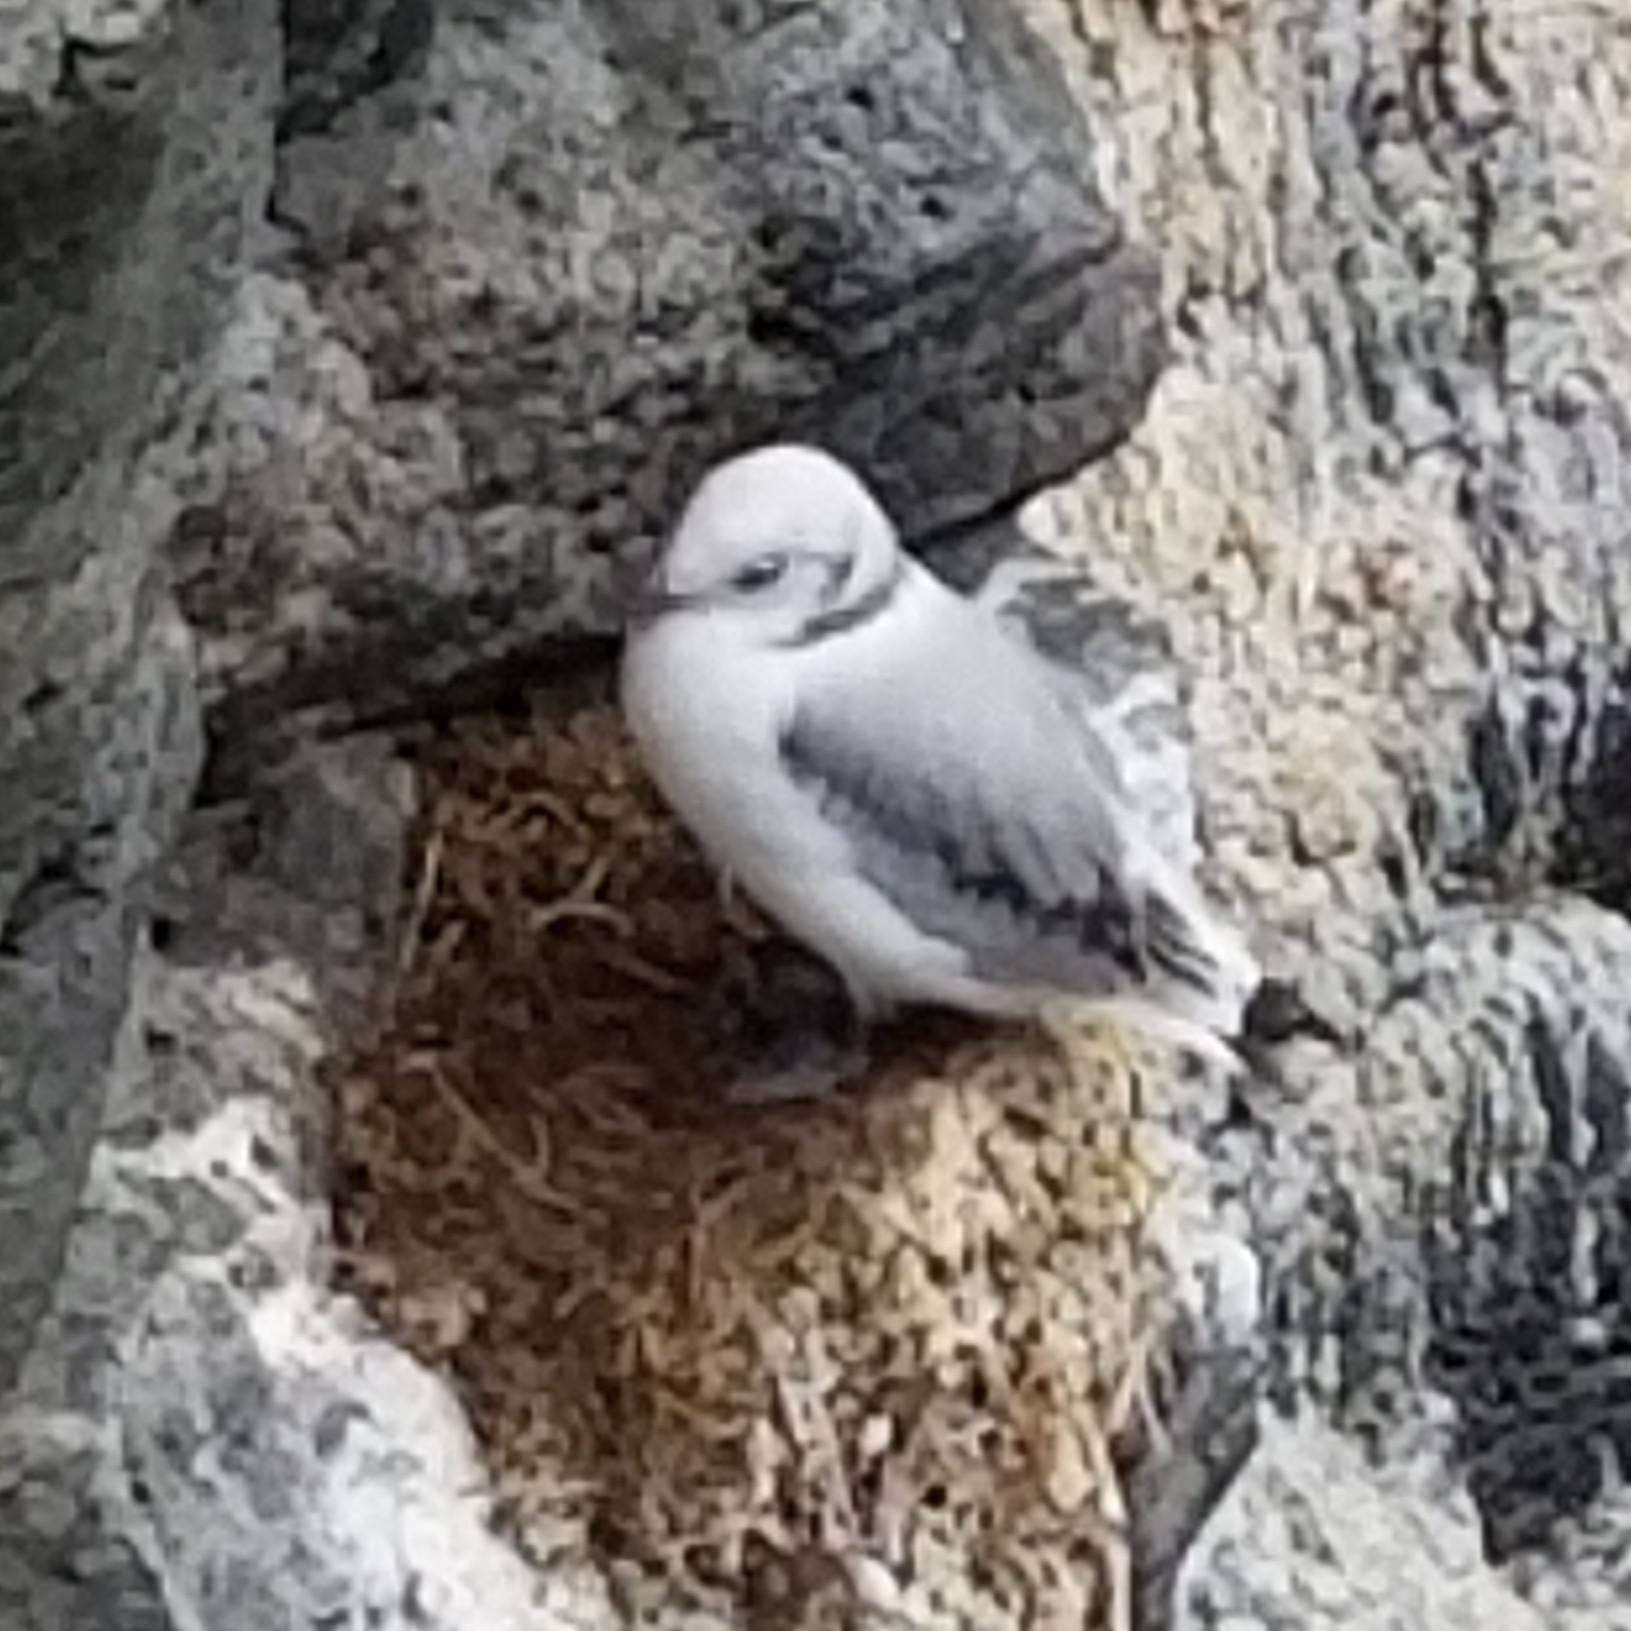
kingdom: Animalia
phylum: Chordata
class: Aves
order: Charadriiformes
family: Laridae
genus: Rissa
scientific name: Rissa tridactyla
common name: Black-legged kittiwake
